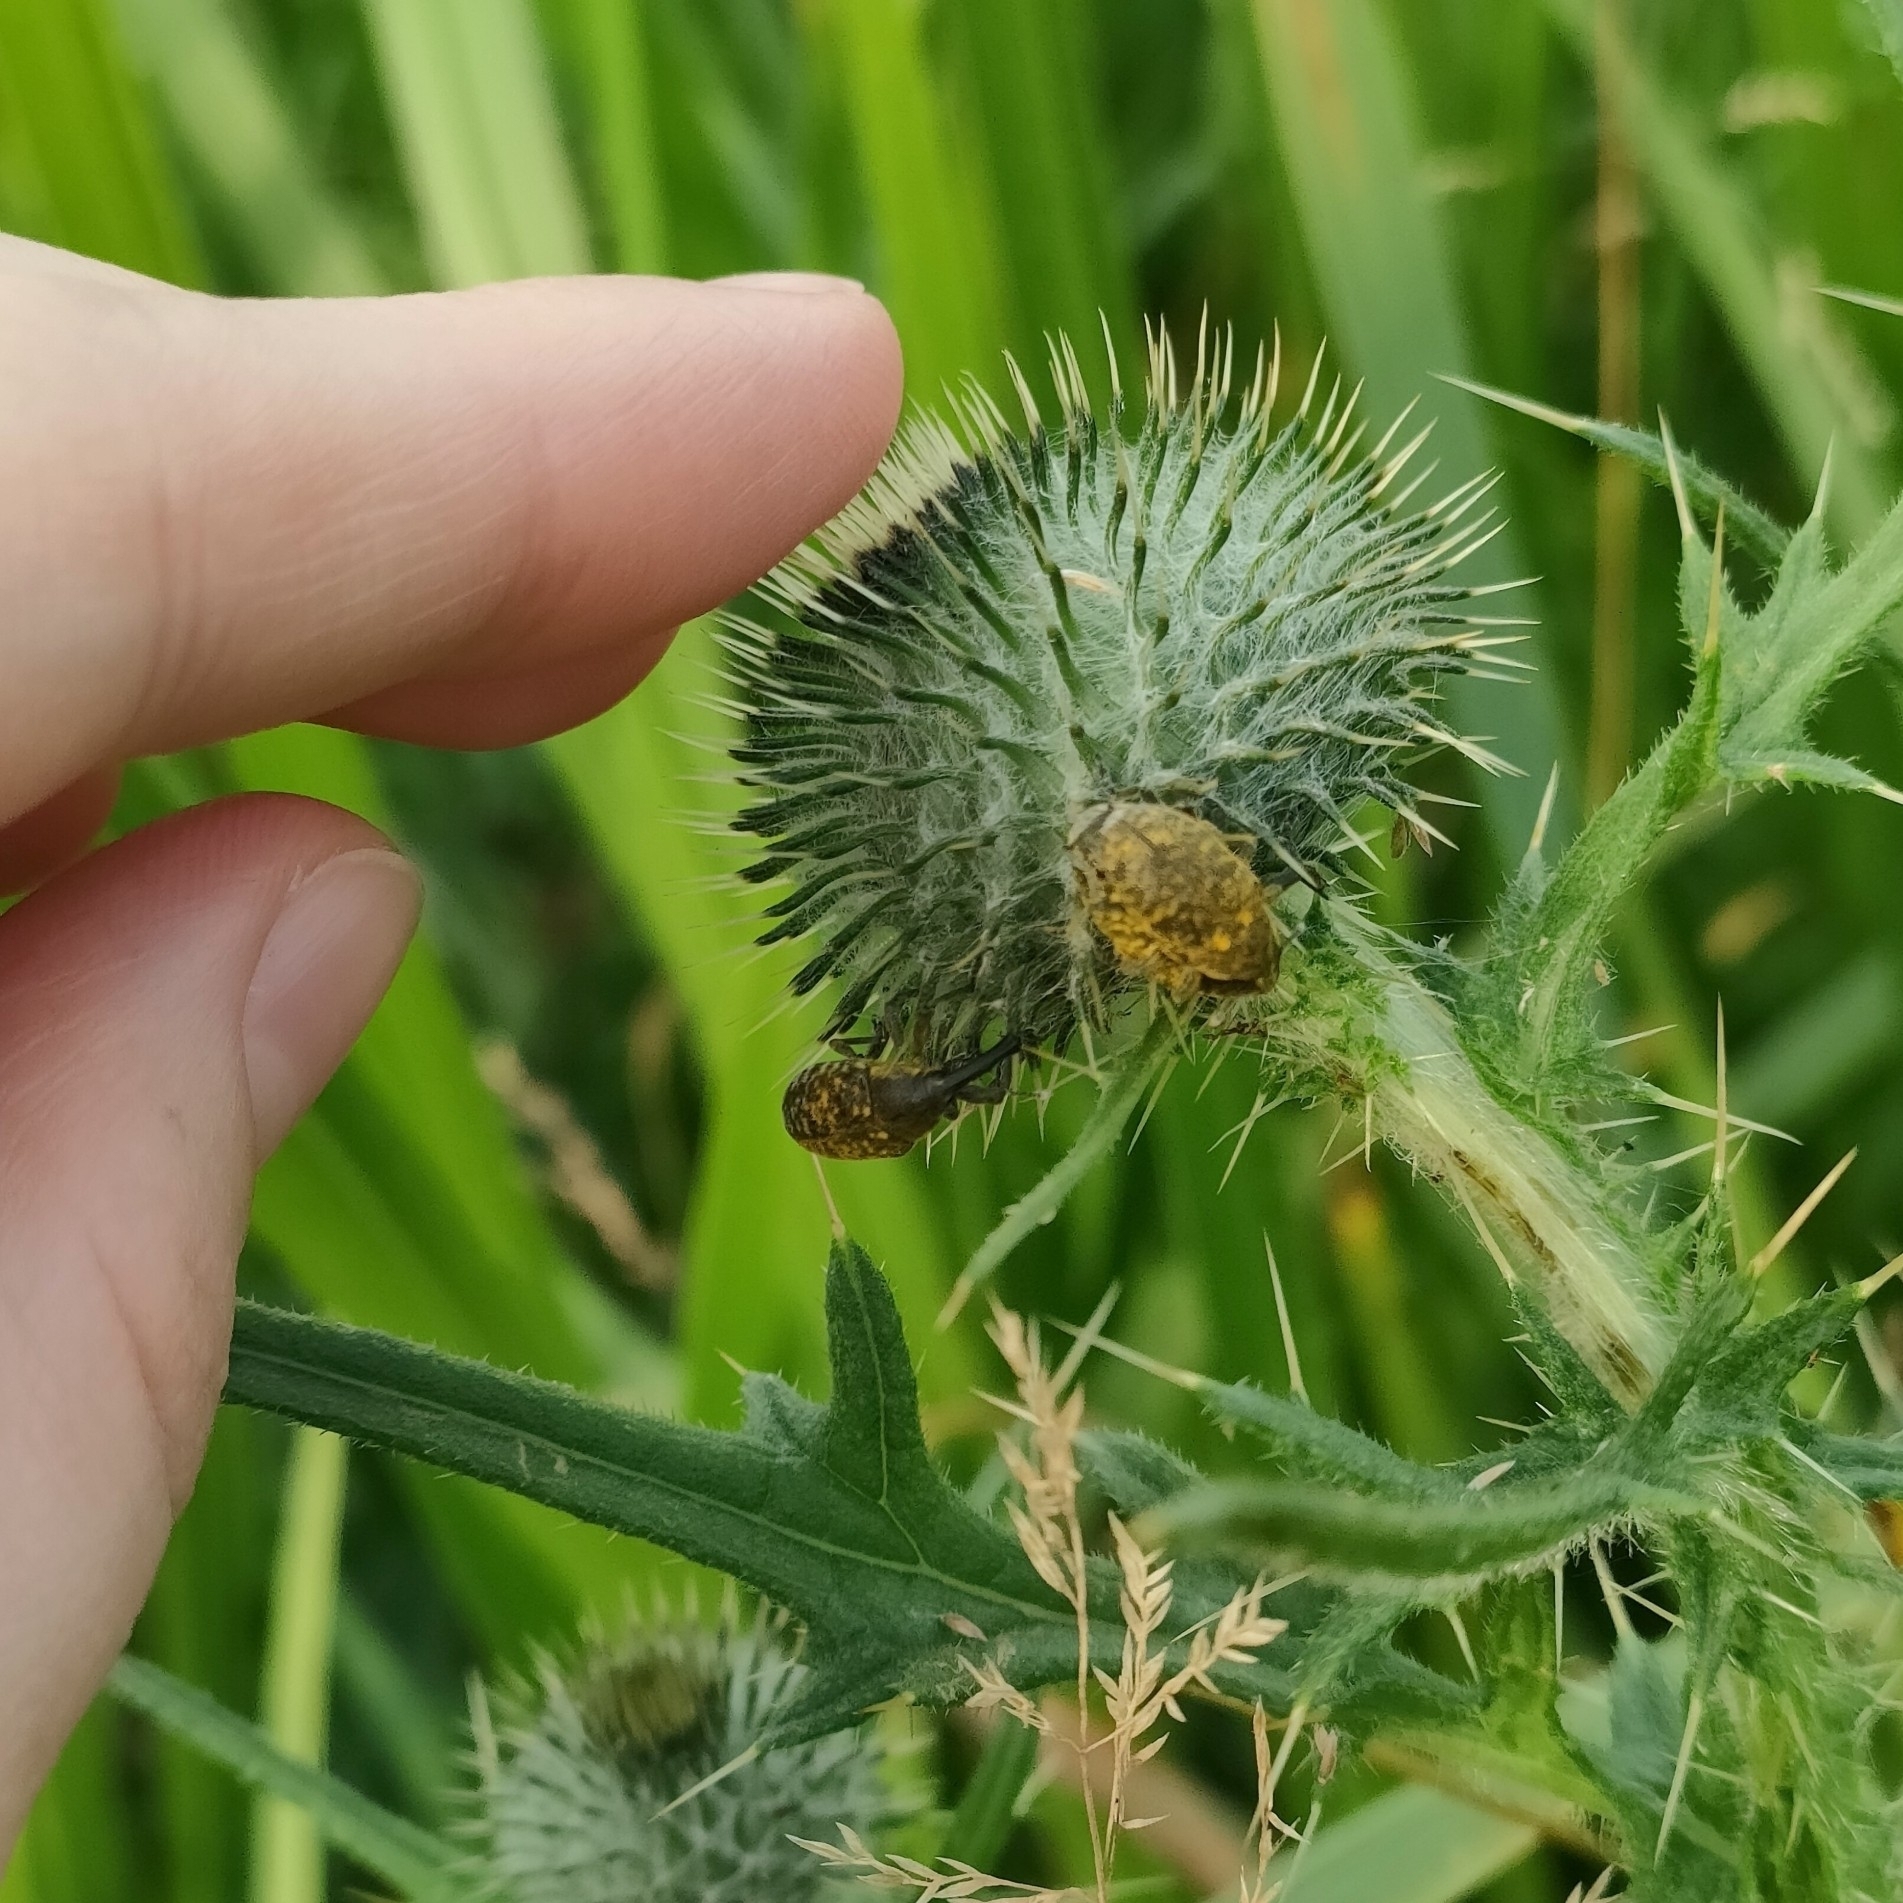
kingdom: Plantae
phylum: Tracheophyta
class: Magnoliopsida
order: Asterales
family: Asteraceae
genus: Cirsium
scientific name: Cirsium vulgare
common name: Bull thistle
